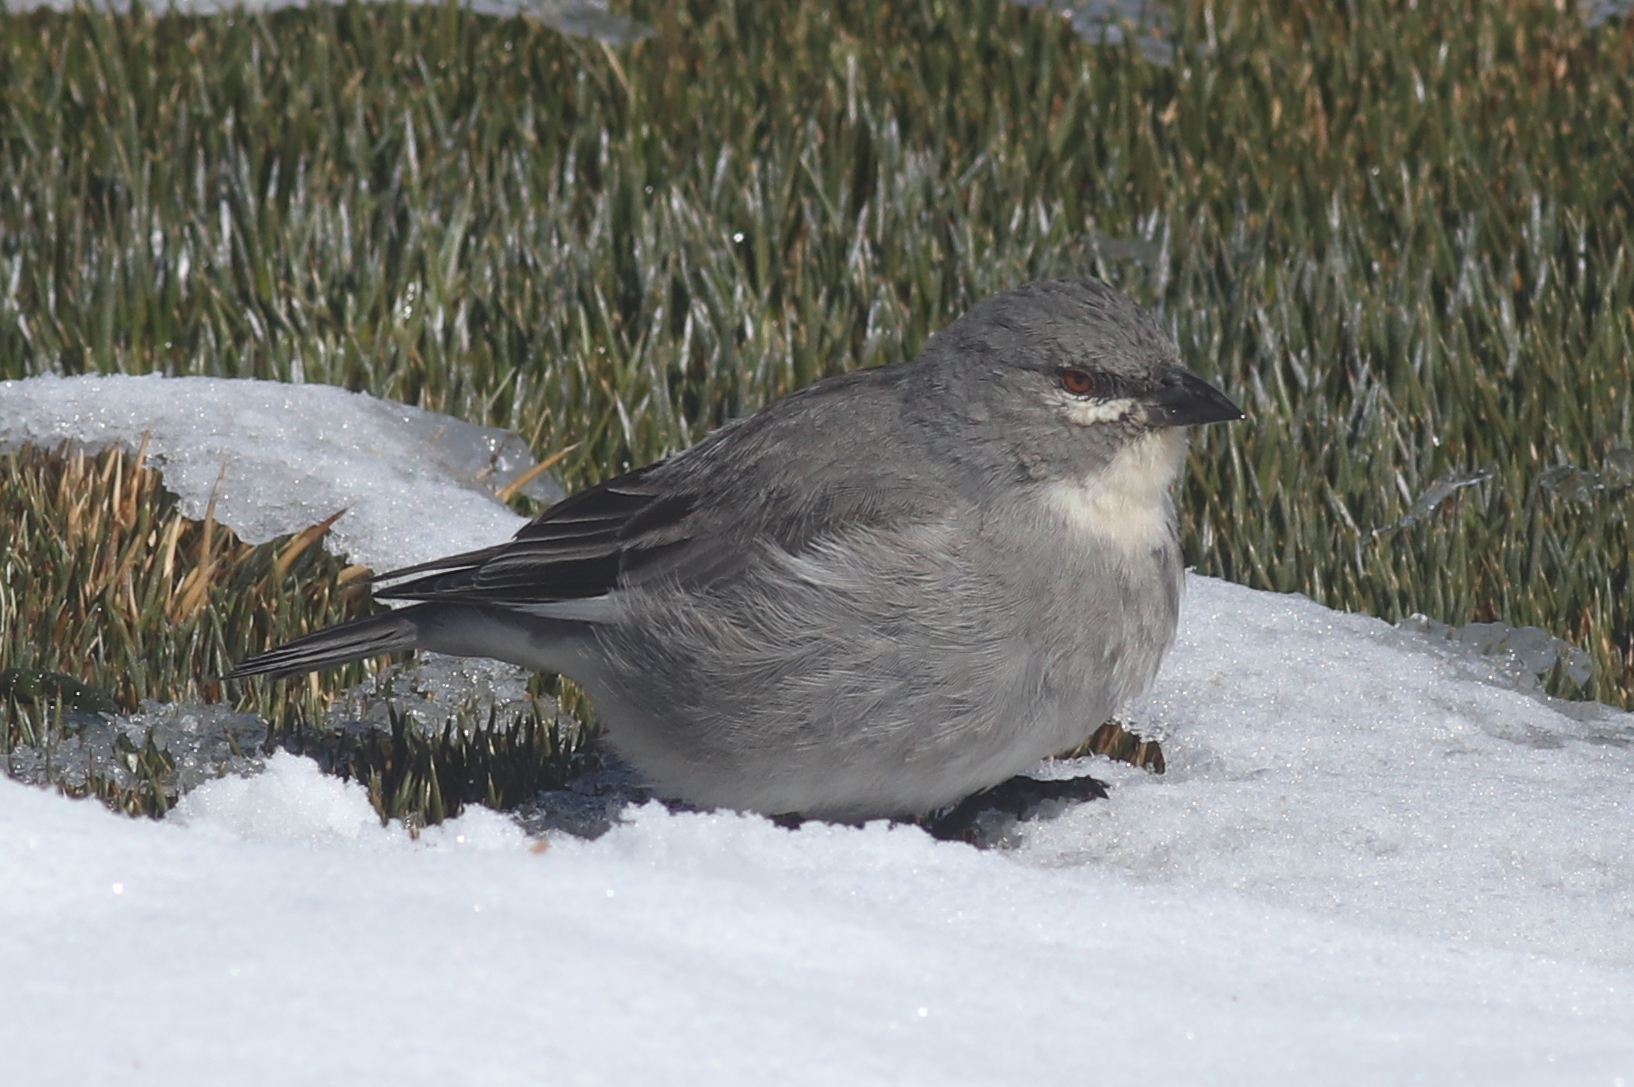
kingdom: Animalia
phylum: Chordata
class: Aves
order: Passeriformes
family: Thraupidae
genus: Idiopsar
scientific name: Idiopsar speculifer
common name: Glacier finch
